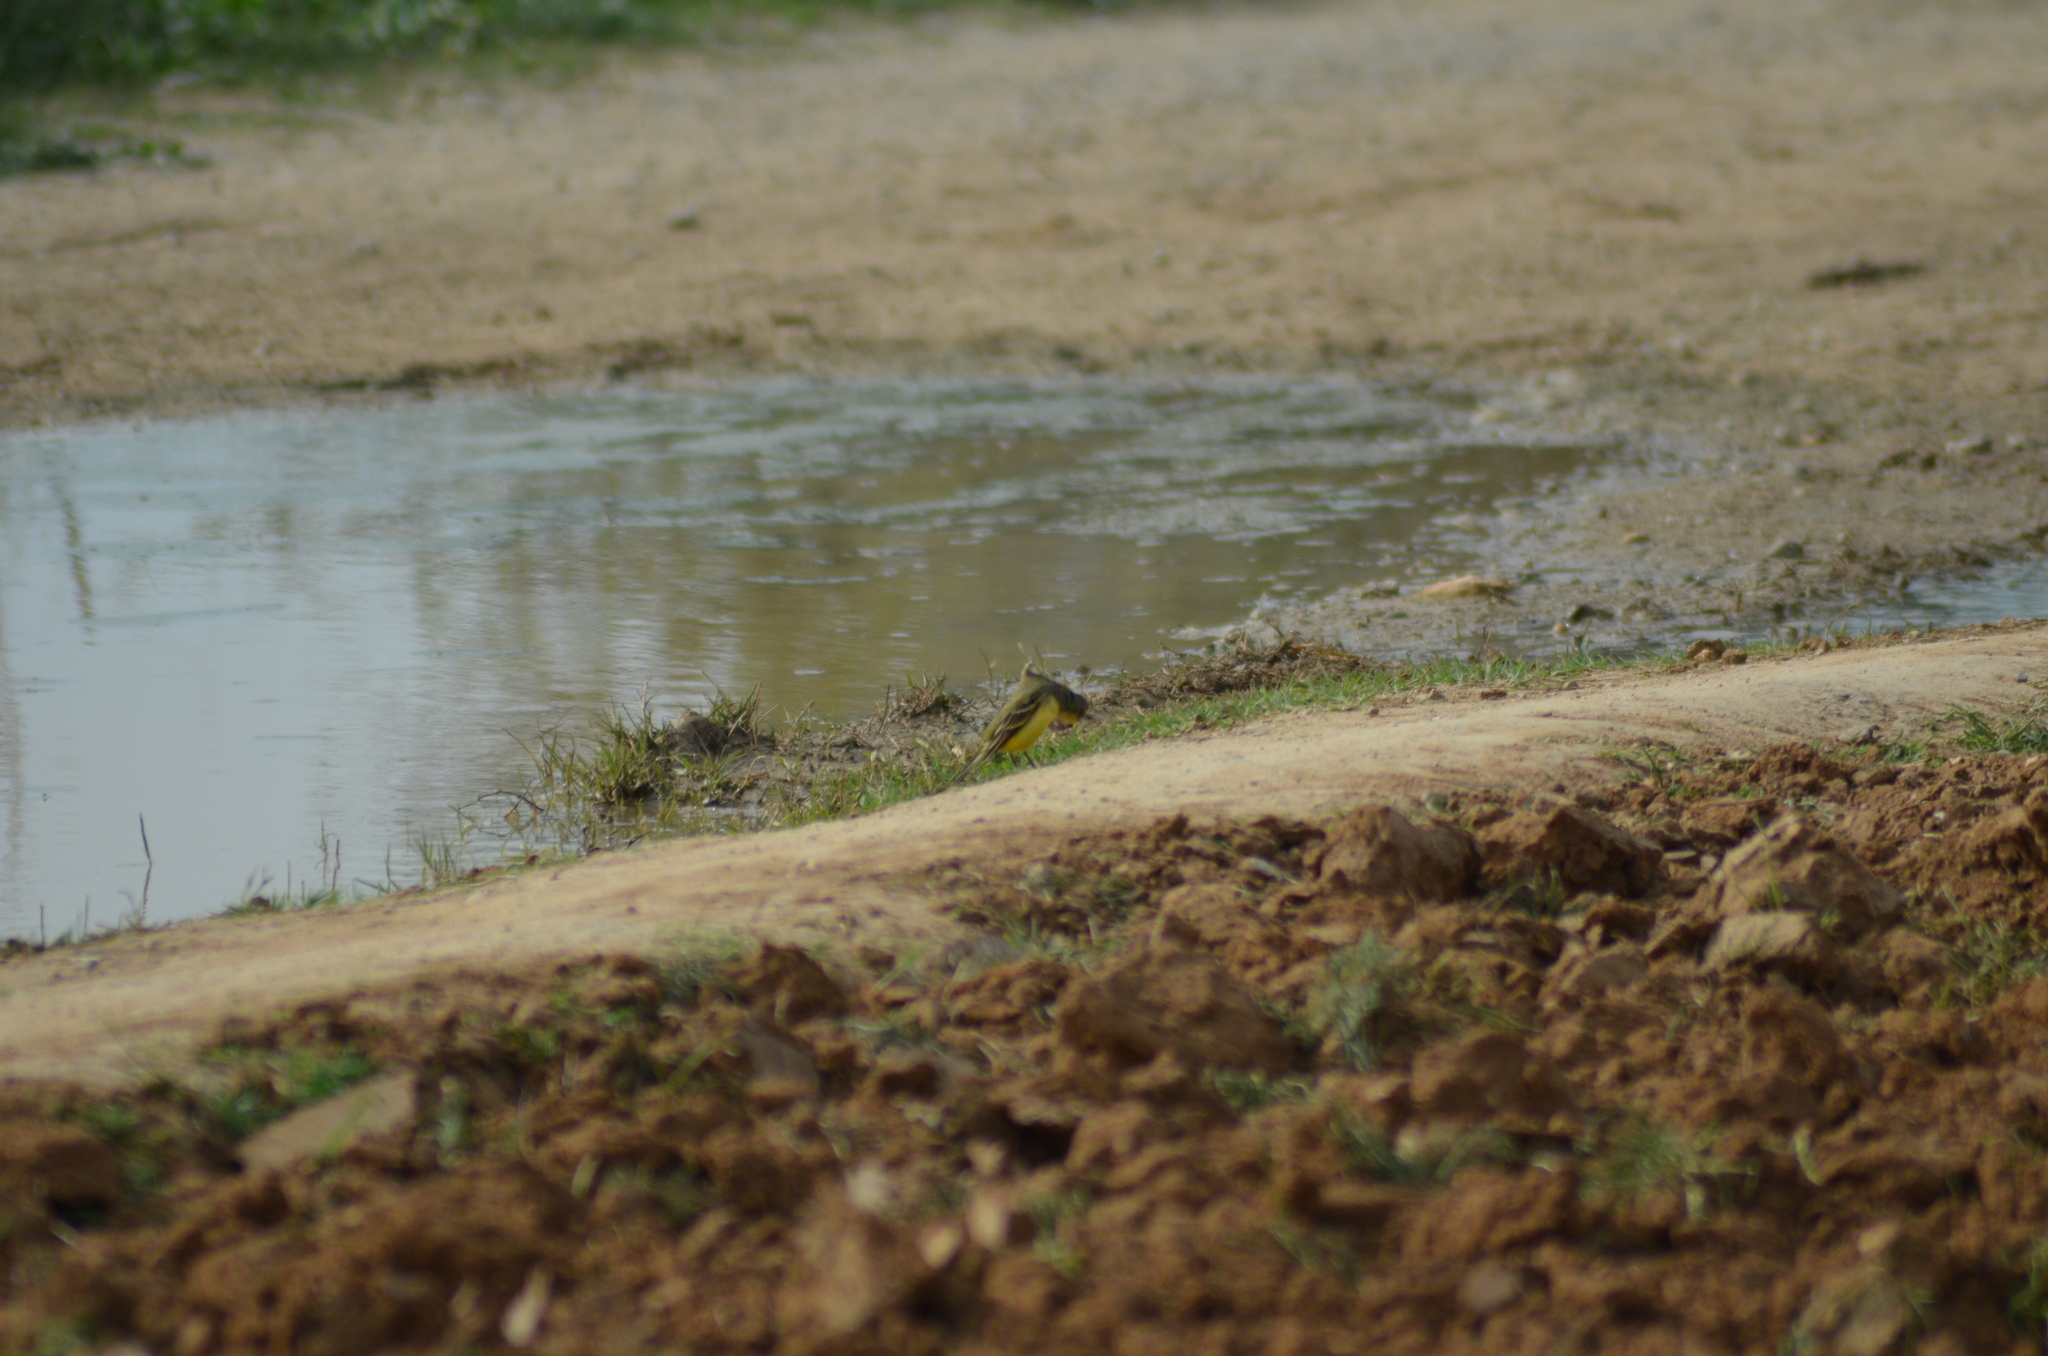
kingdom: Animalia
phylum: Chordata
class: Aves
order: Passeriformes
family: Motacillidae
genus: Motacilla
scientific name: Motacilla flava
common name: Western yellow wagtail
